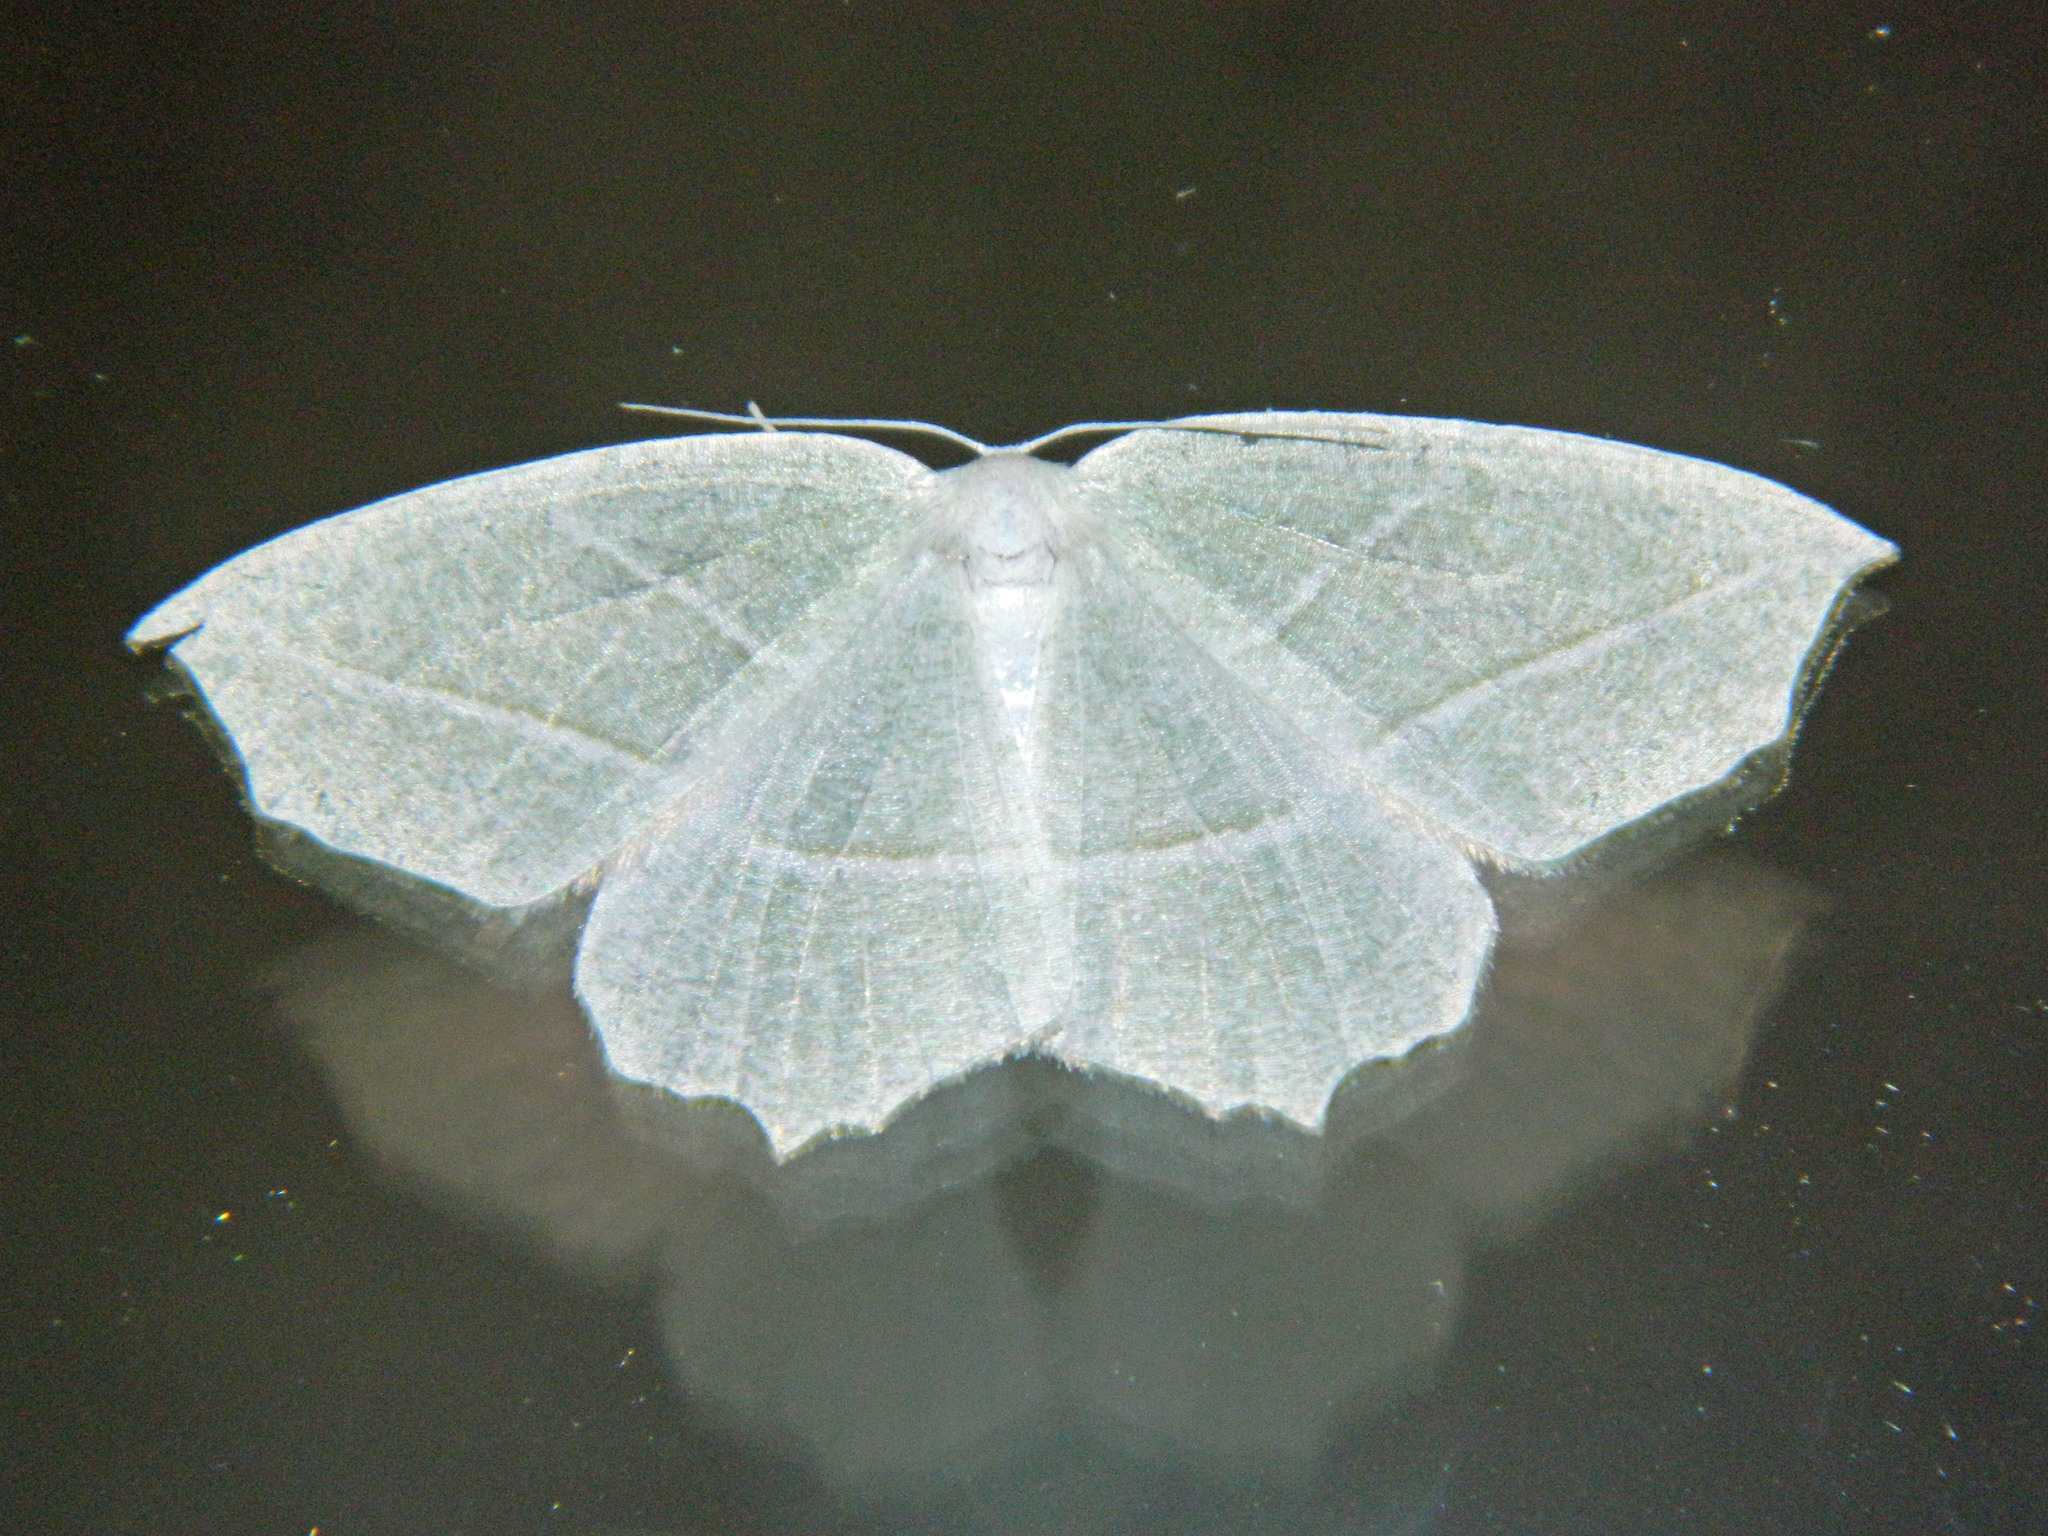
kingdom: Animalia
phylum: Arthropoda
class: Insecta
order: Lepidoptera
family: Geometridae
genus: Campaea
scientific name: Campaea perlata
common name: Fringed looper
